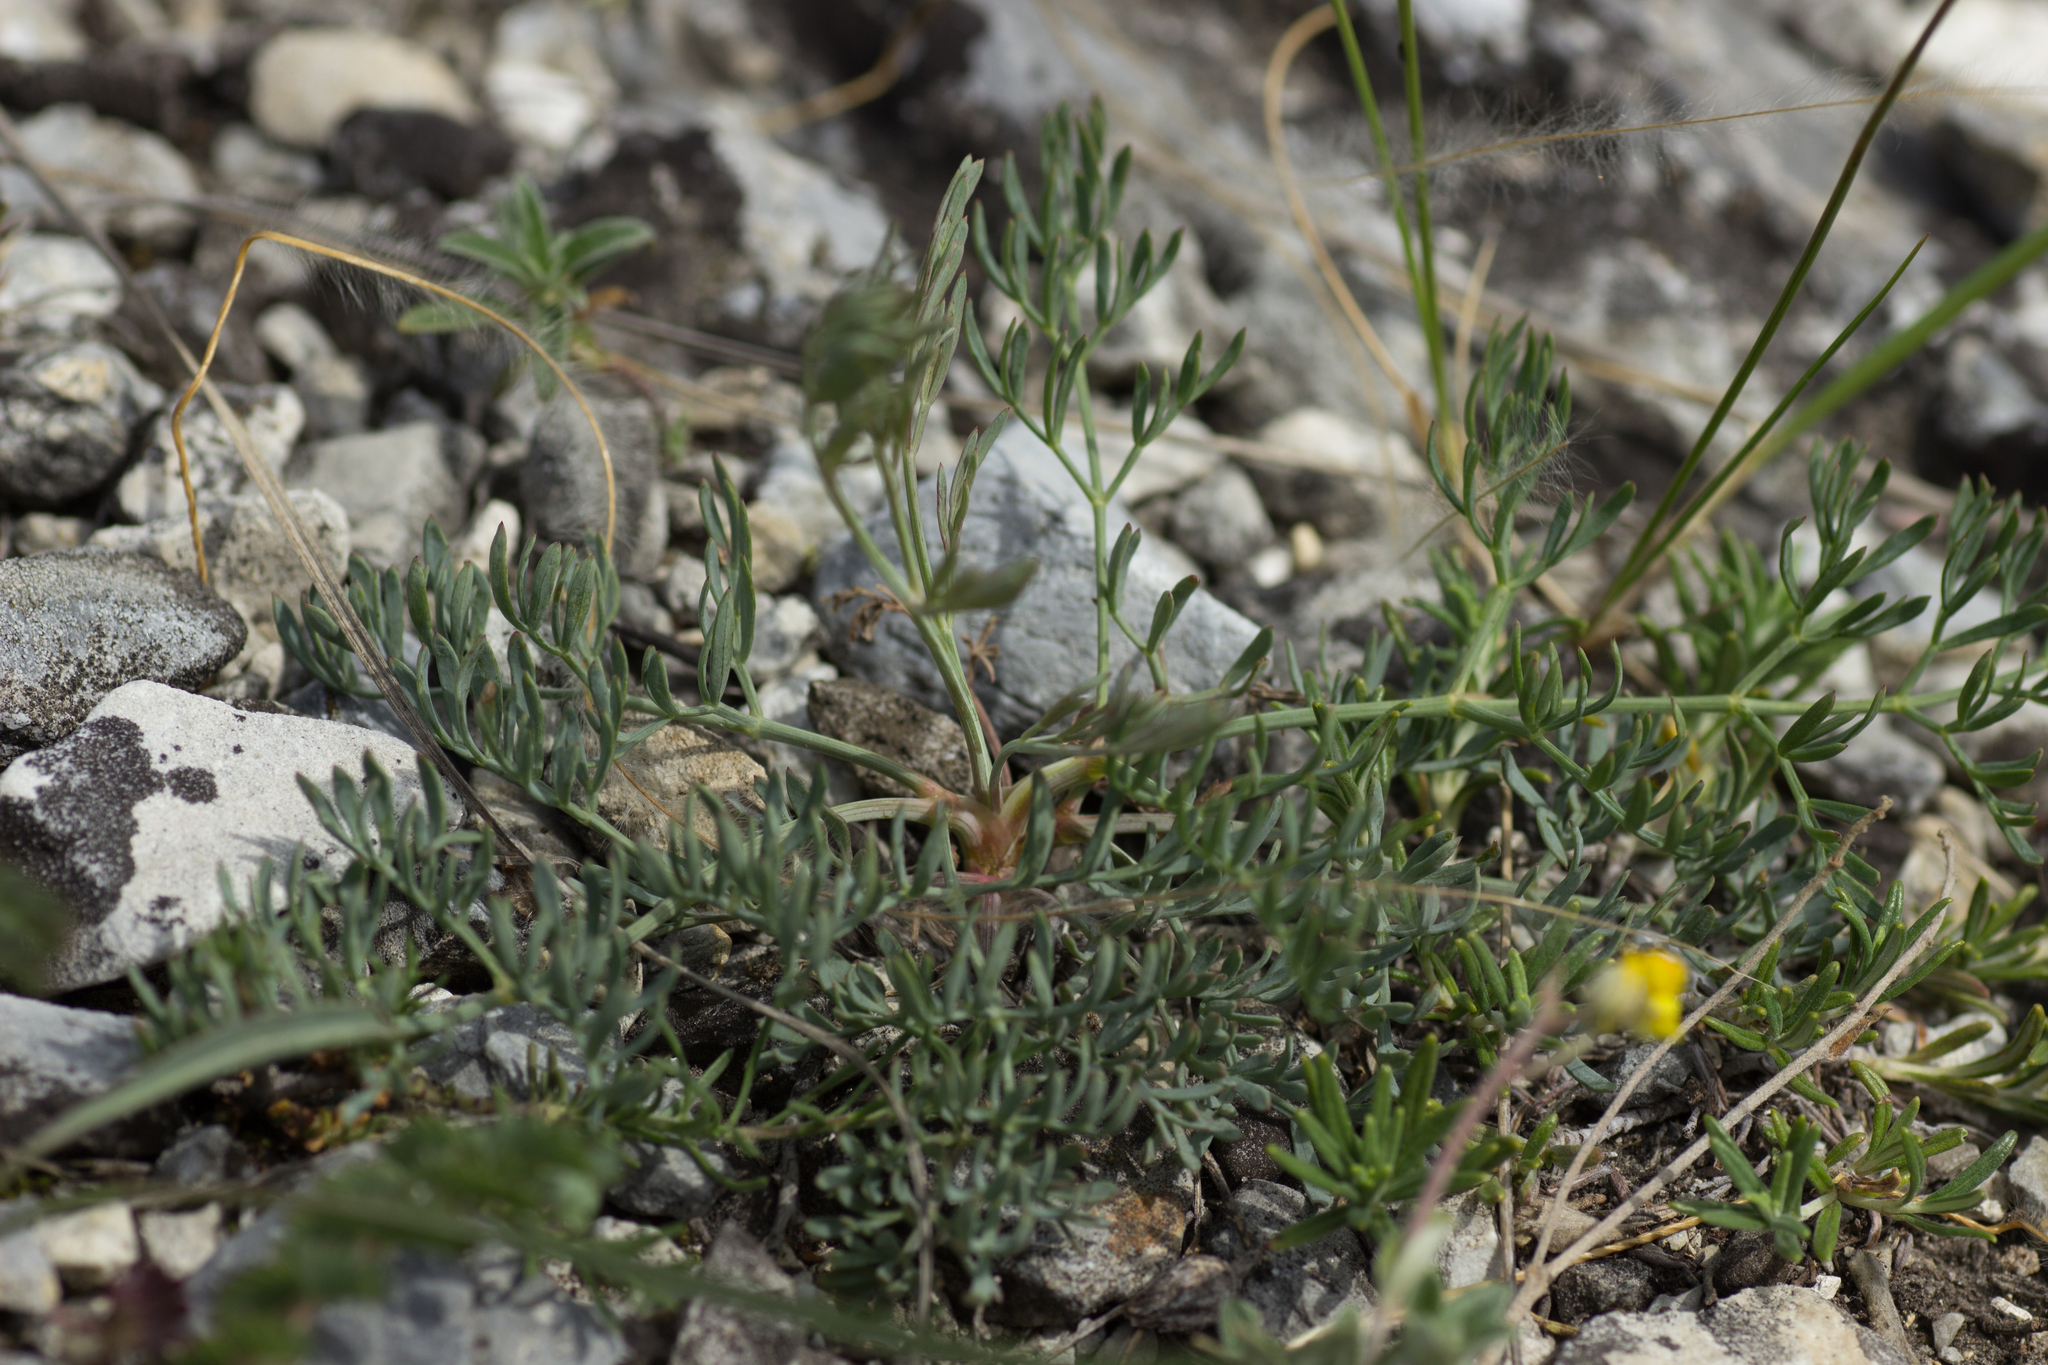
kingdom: Plantae
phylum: Tracheophyta
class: Magnoliopsida
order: Apiales
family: Apiaceae
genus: Trinia
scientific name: Trinia glauca
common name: Honewort
